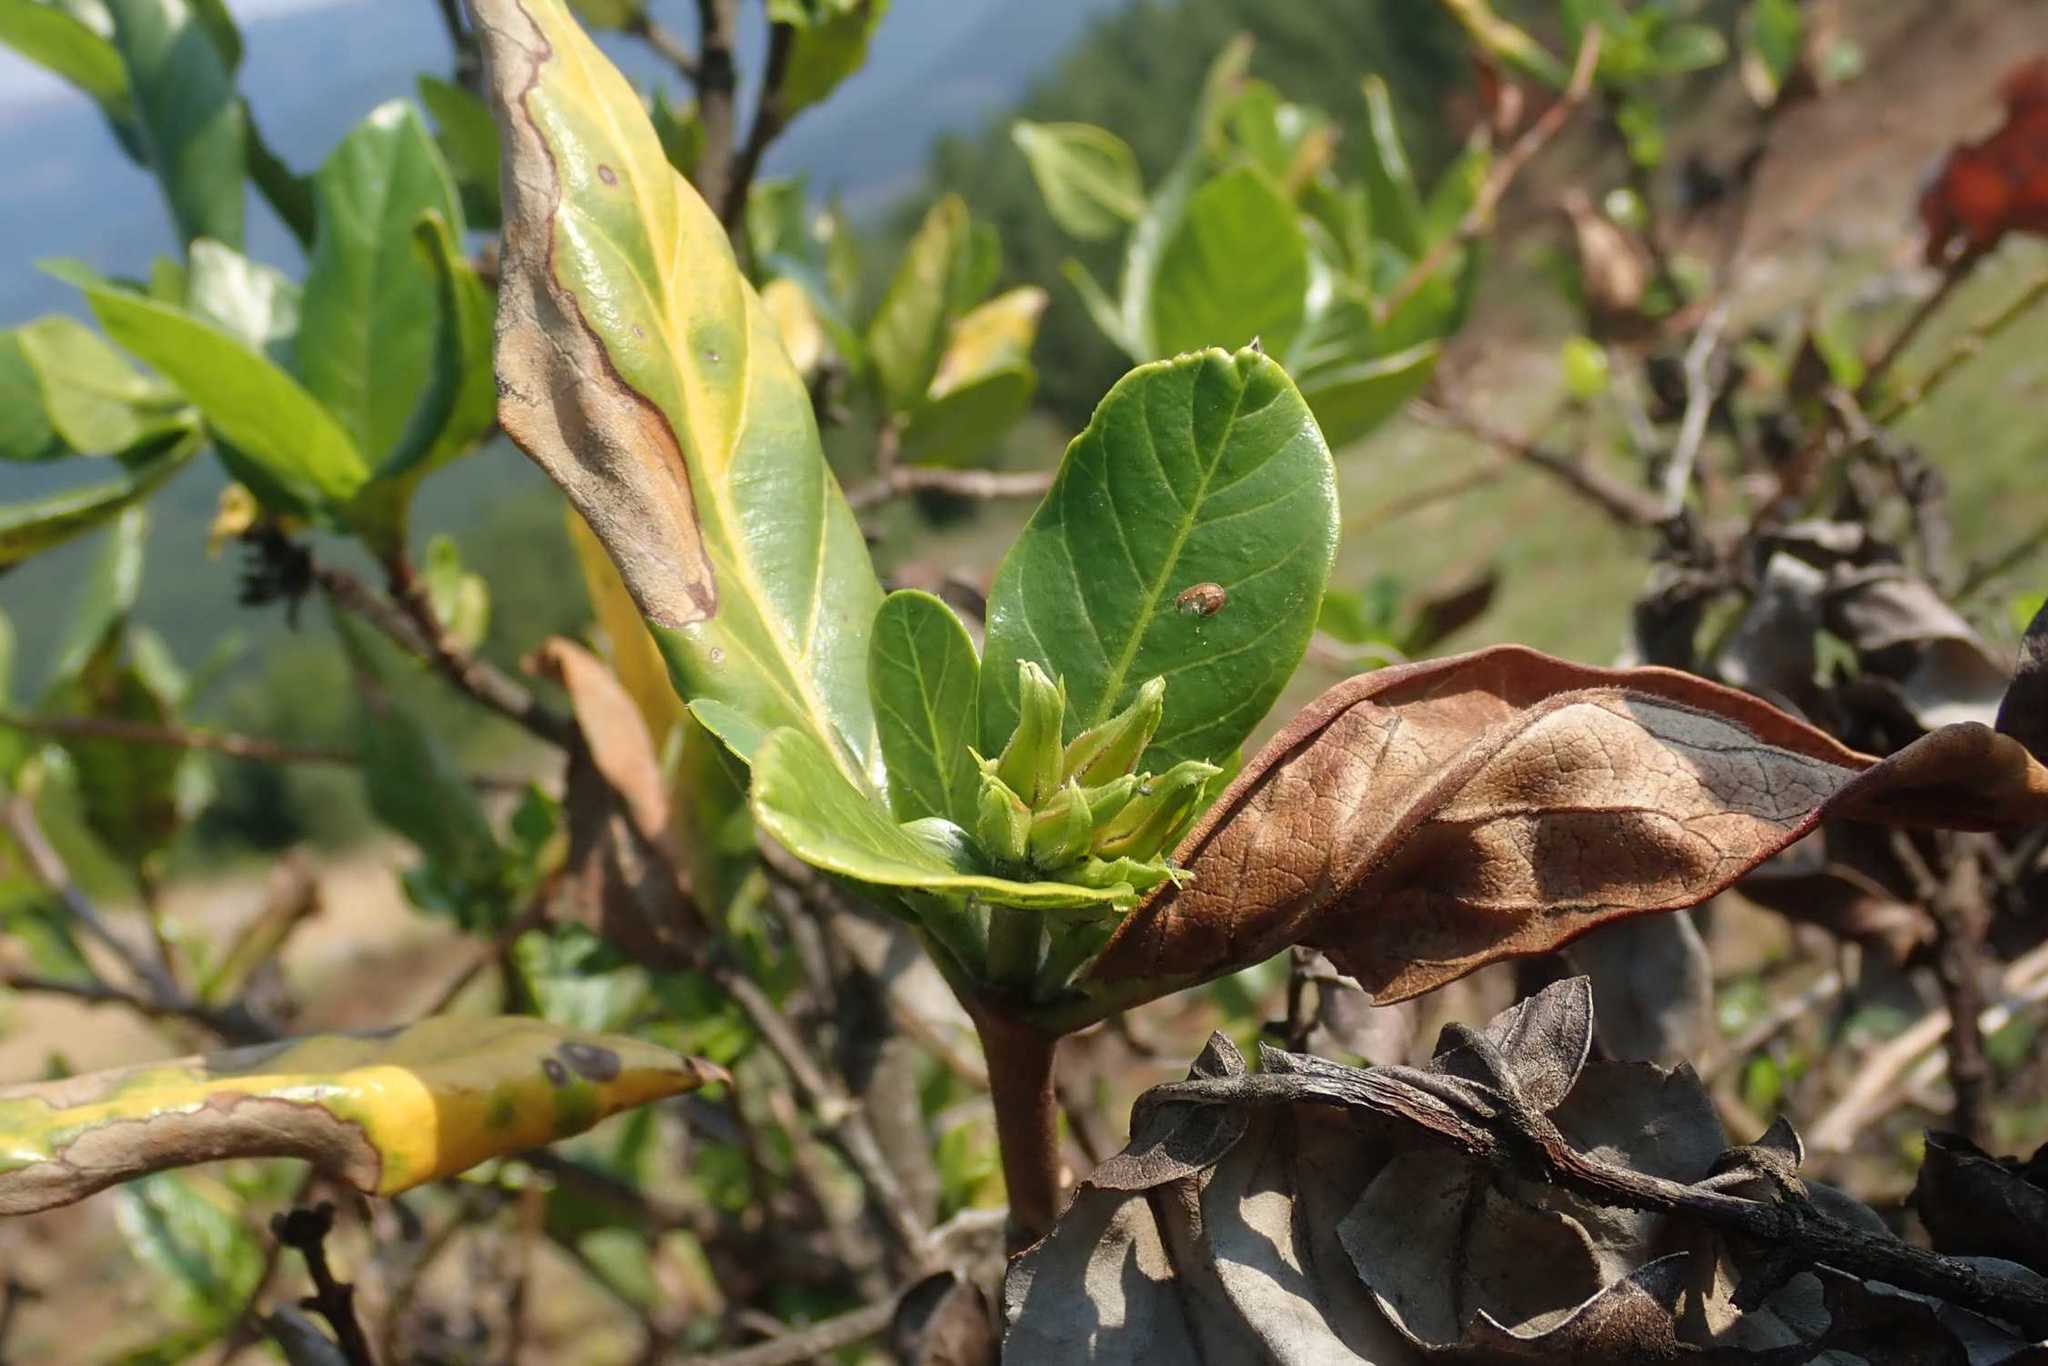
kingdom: Plantae
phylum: Tracheophyta
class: Magnoliopsida
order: Gentianales
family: Rubiaceae
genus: Burchellia
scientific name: Burchellia bubalina
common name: Wild pomegranate
